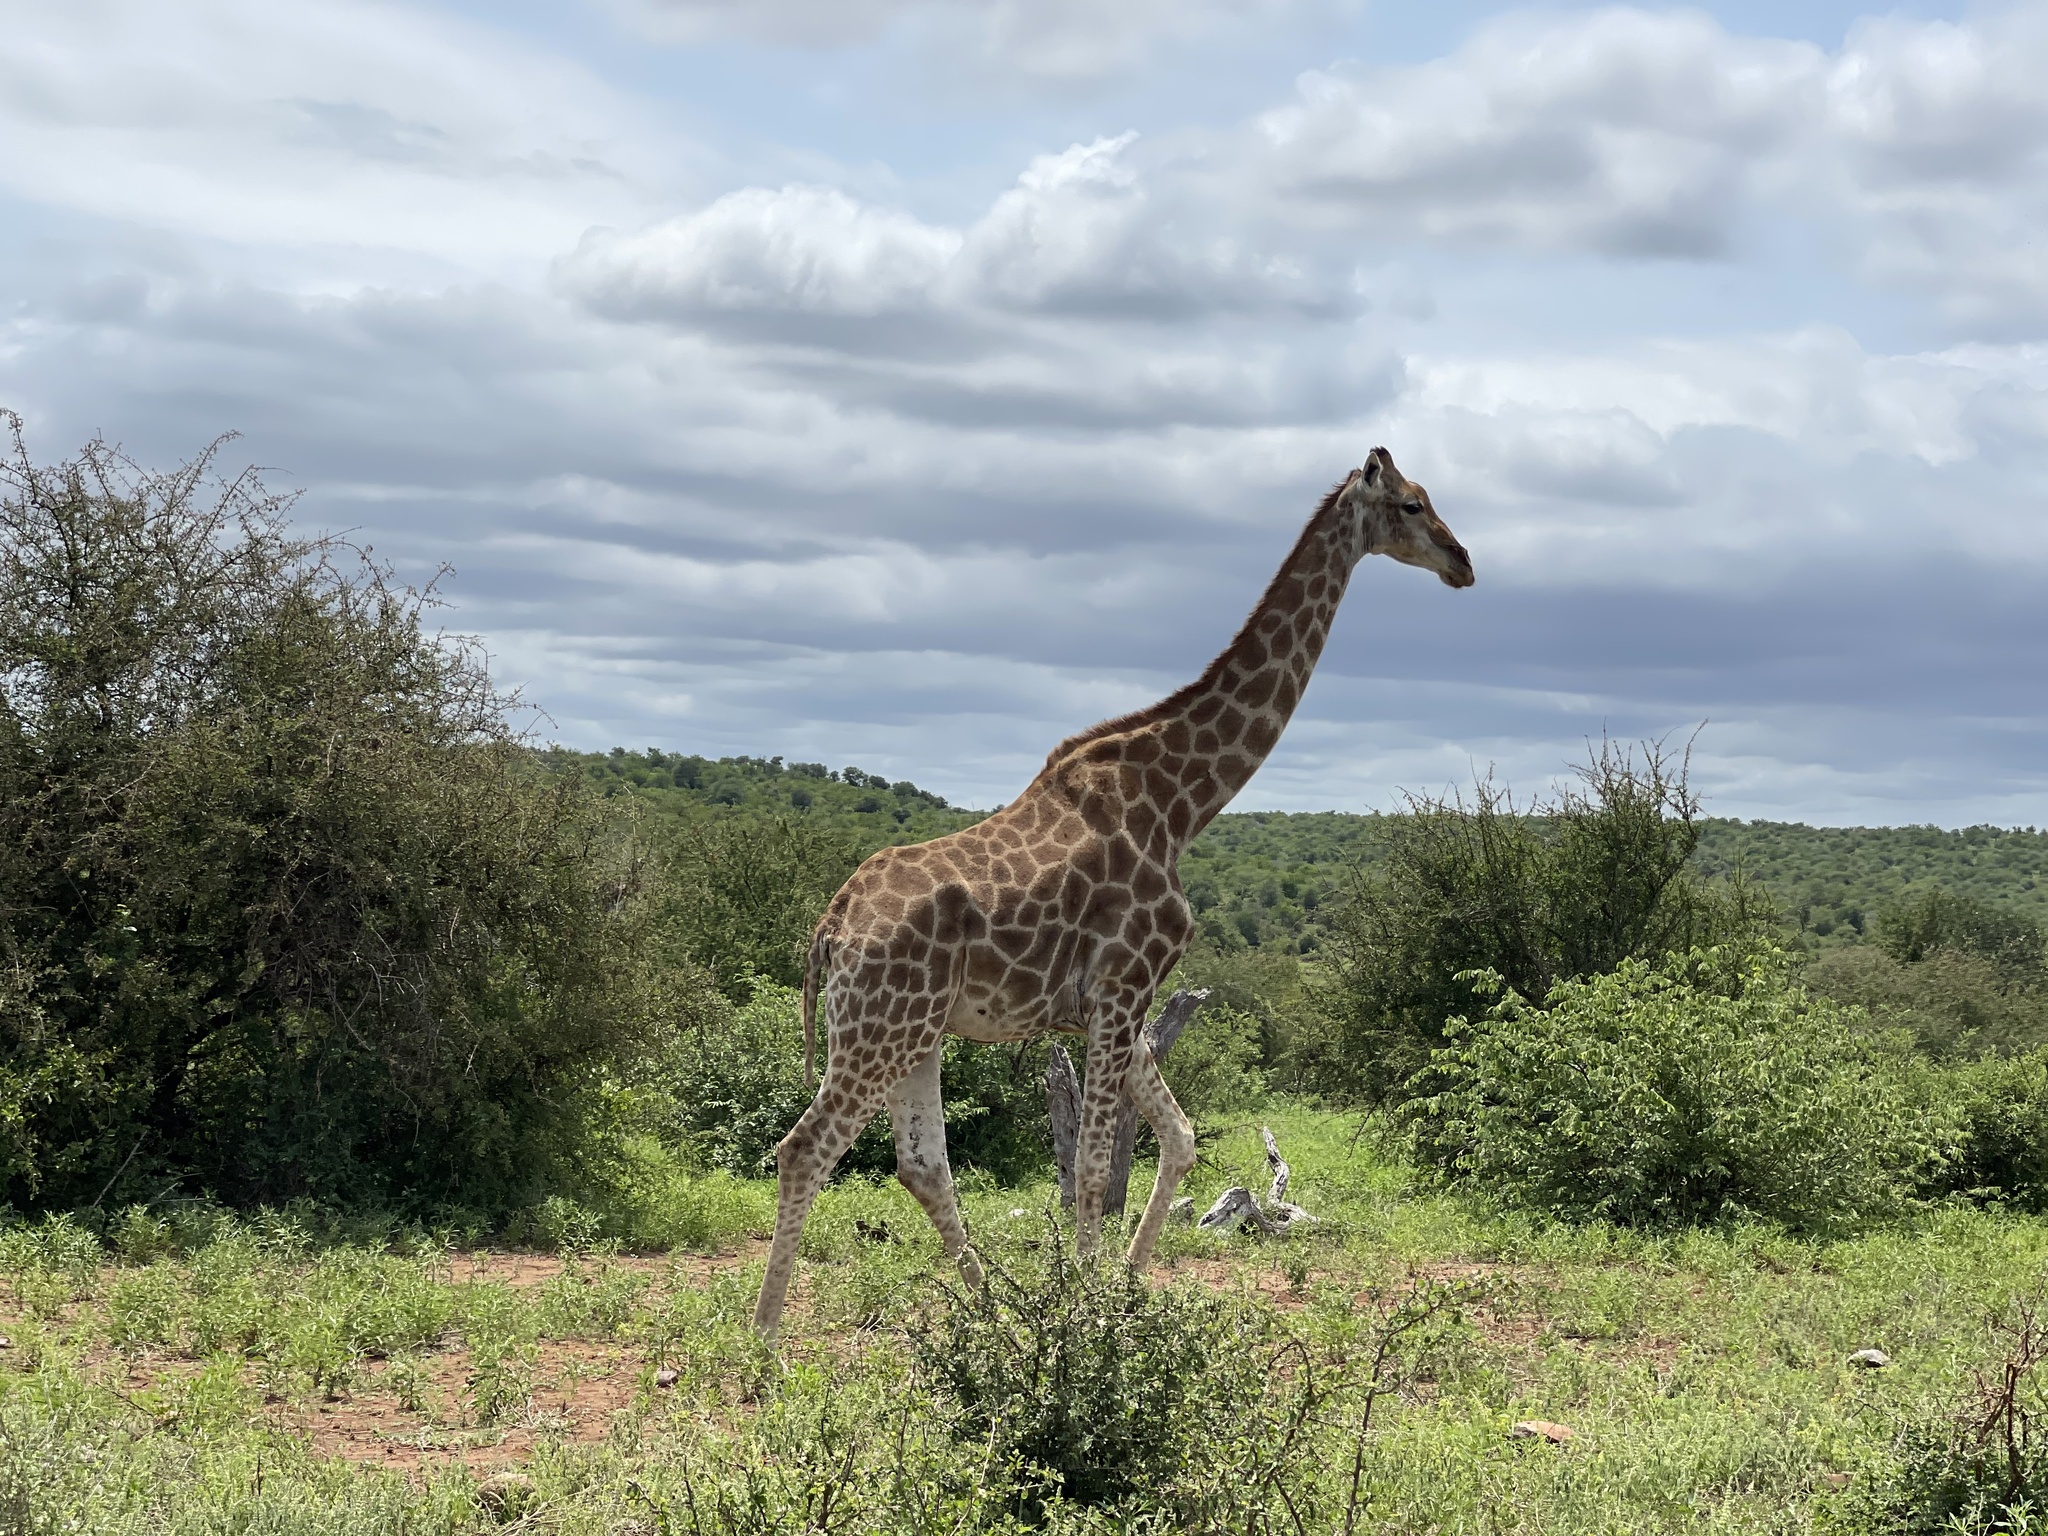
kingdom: Animalia
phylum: Chordata
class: Mammalia
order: Artiodactyla
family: Giraffidae
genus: Giraffa
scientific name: Giraffa giraffa
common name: Southern giraffe
